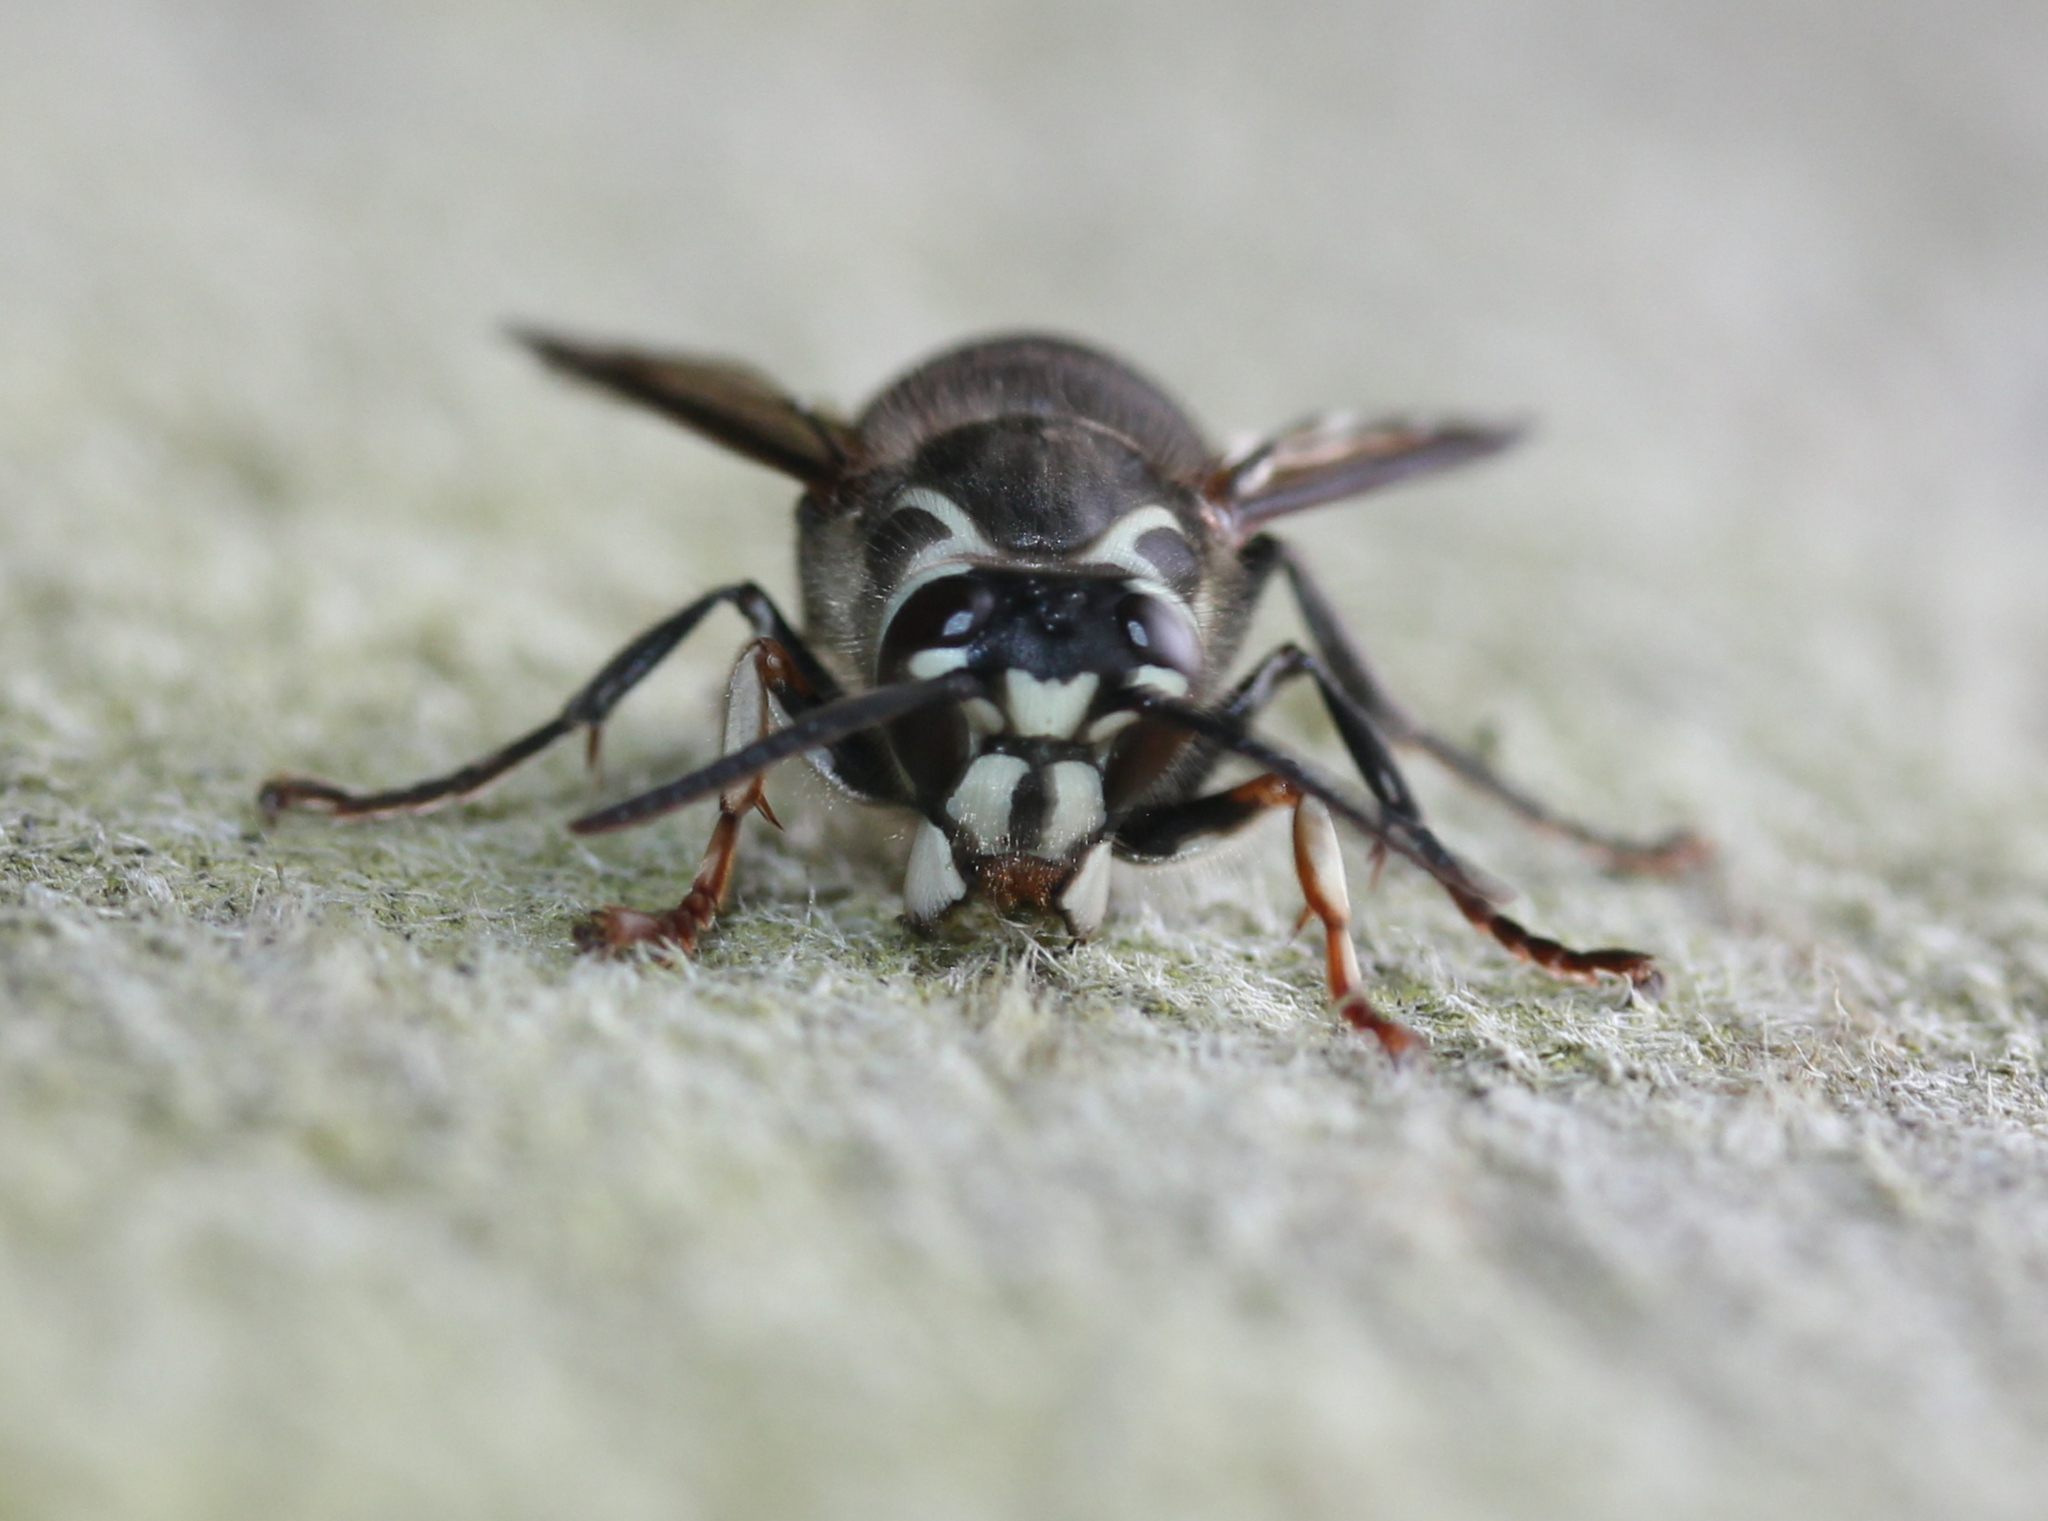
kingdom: Animalia
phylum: Arthropoda
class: Insecta
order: Hymenoptera
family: Vespidae
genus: Dolichovespula
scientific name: Dolichovespula maculata
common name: Bald-faced hornet
